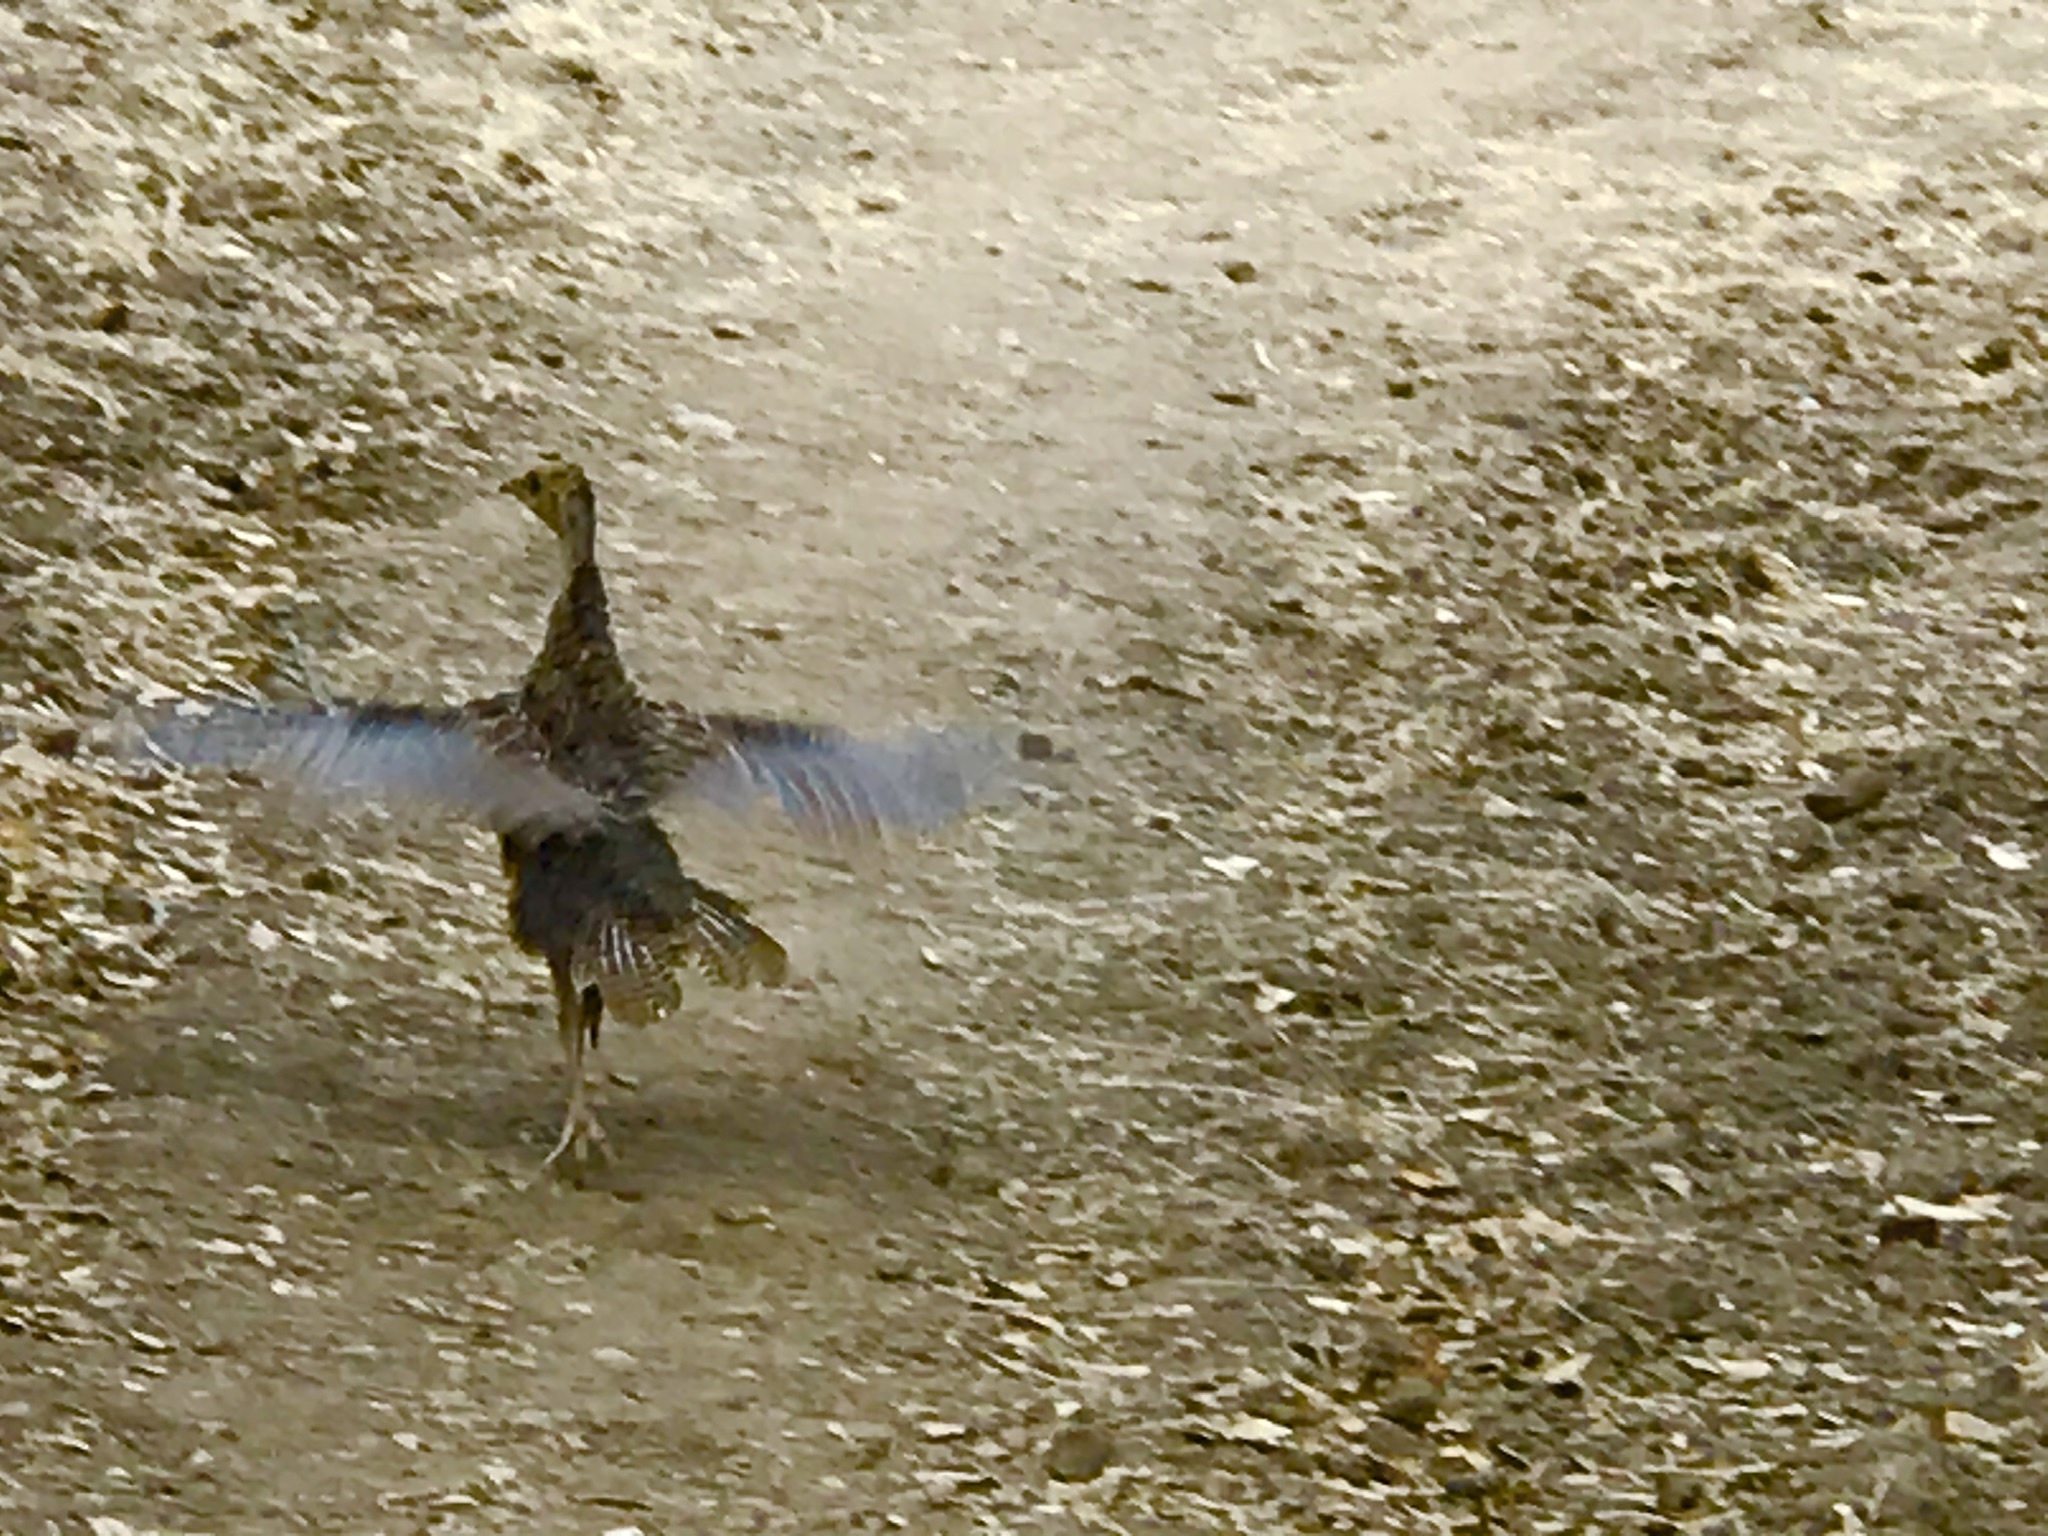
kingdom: Animalia
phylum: Chordata
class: Aves
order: Galliformes
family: Phasianidae
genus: Meleagris
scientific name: Meleagris gallopavo
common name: Wild turkey
